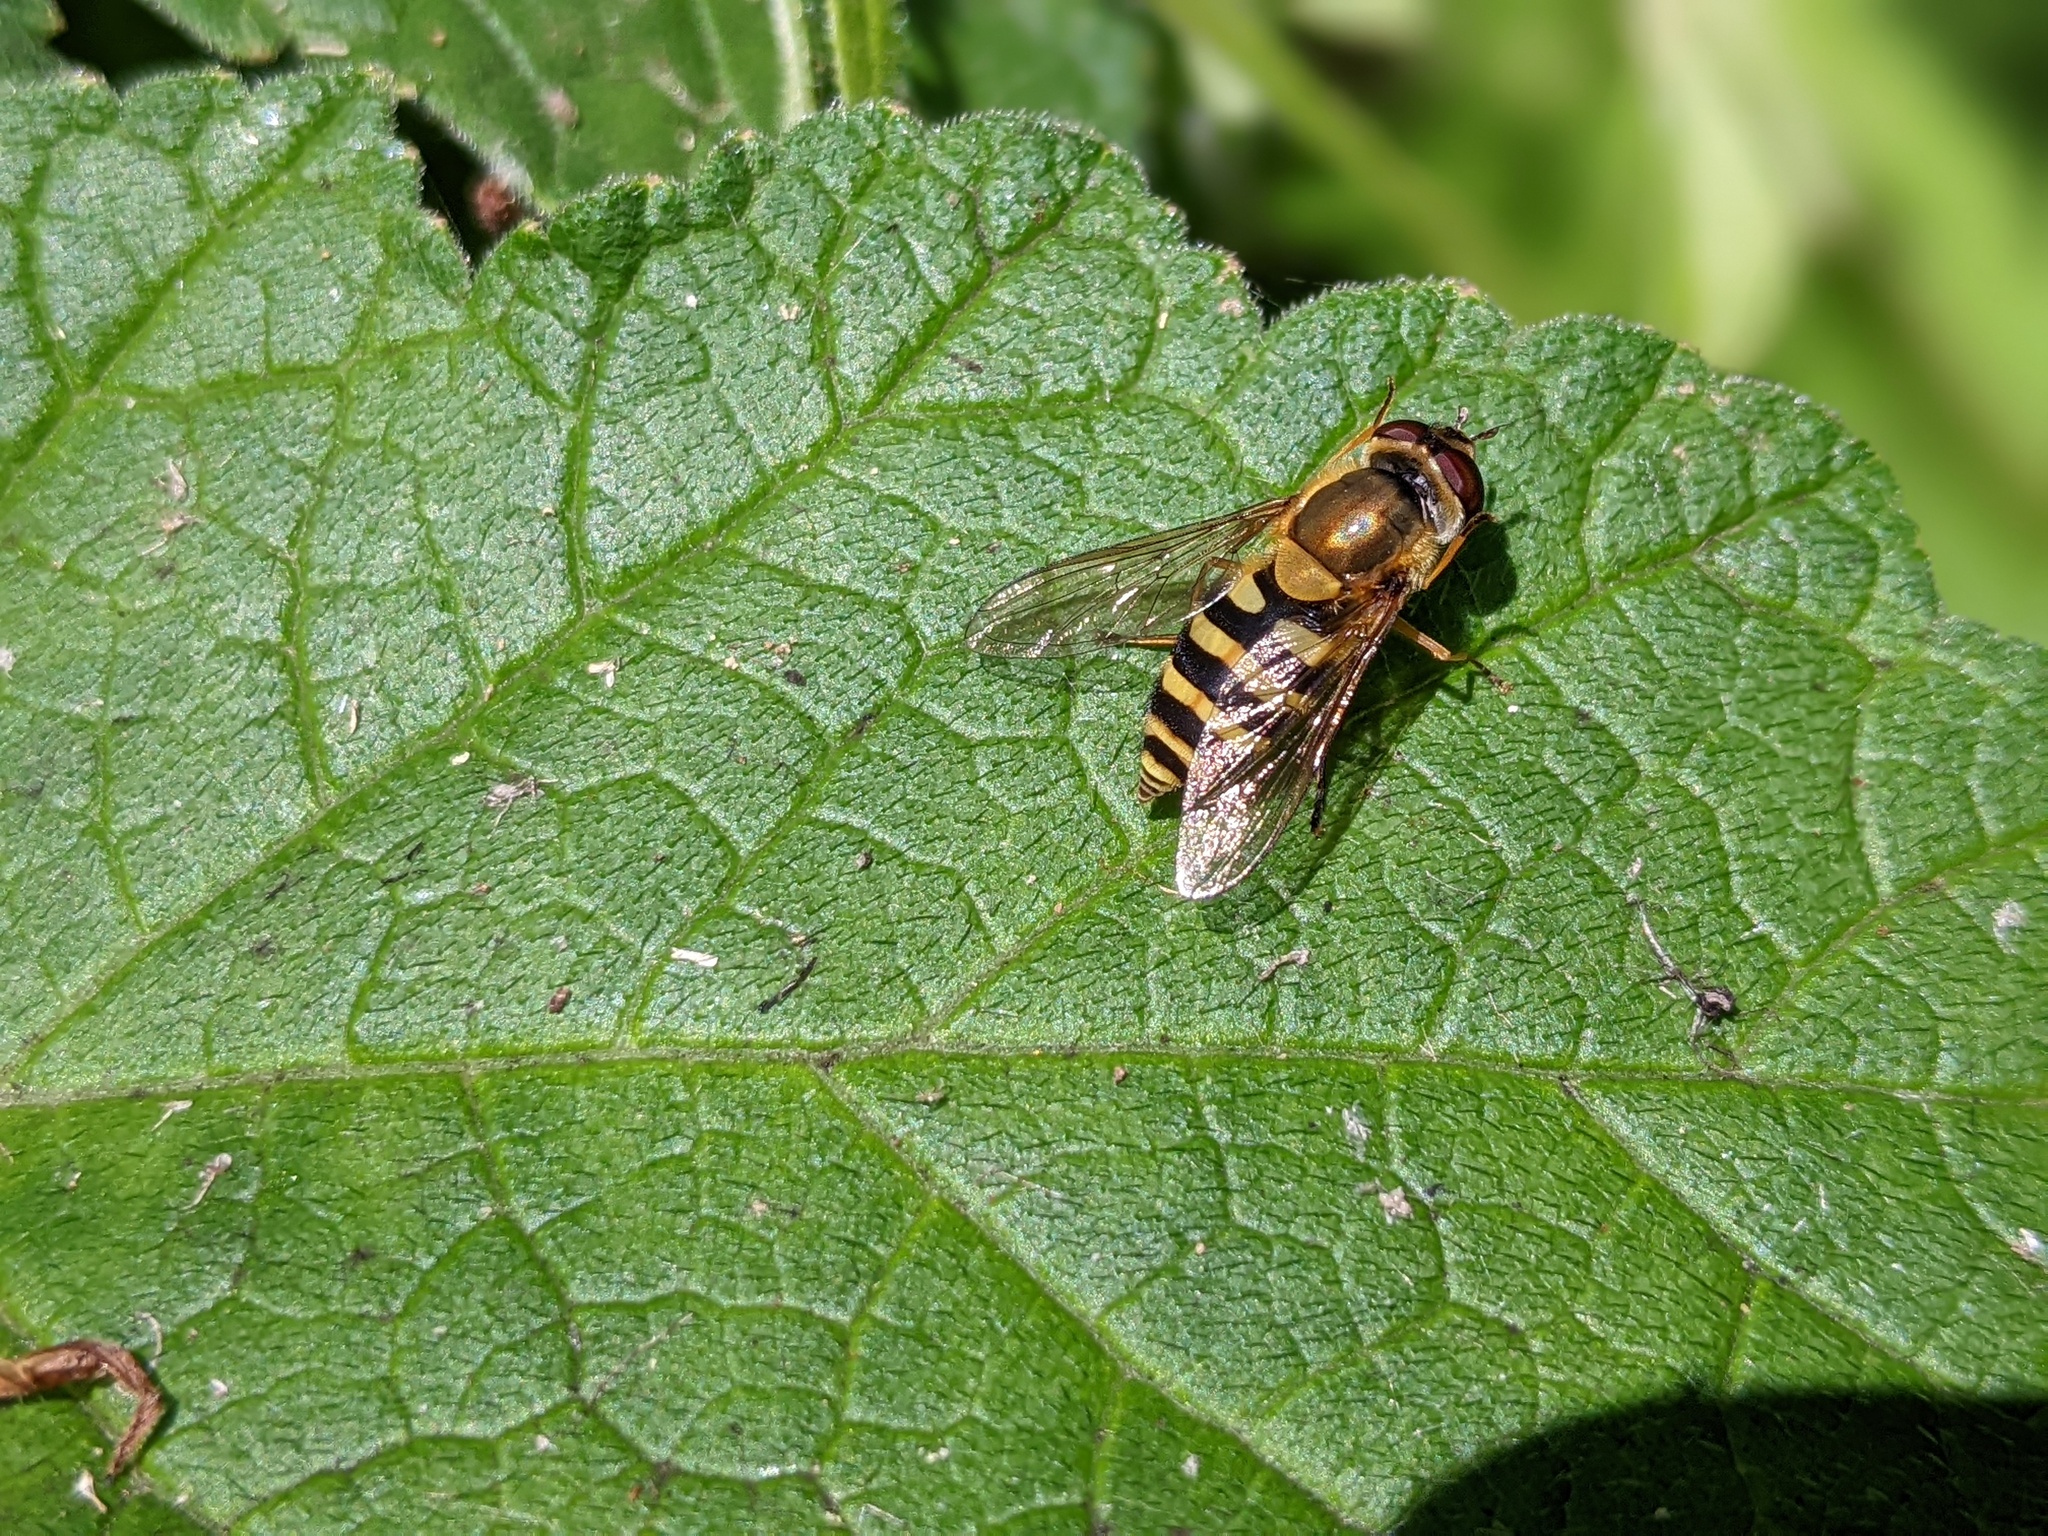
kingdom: Animalia
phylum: Arthropoda
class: Insecta
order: Diptera
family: Syrphidae
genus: Syrphus
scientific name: Syrphus ribesii
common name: Common flower fly
